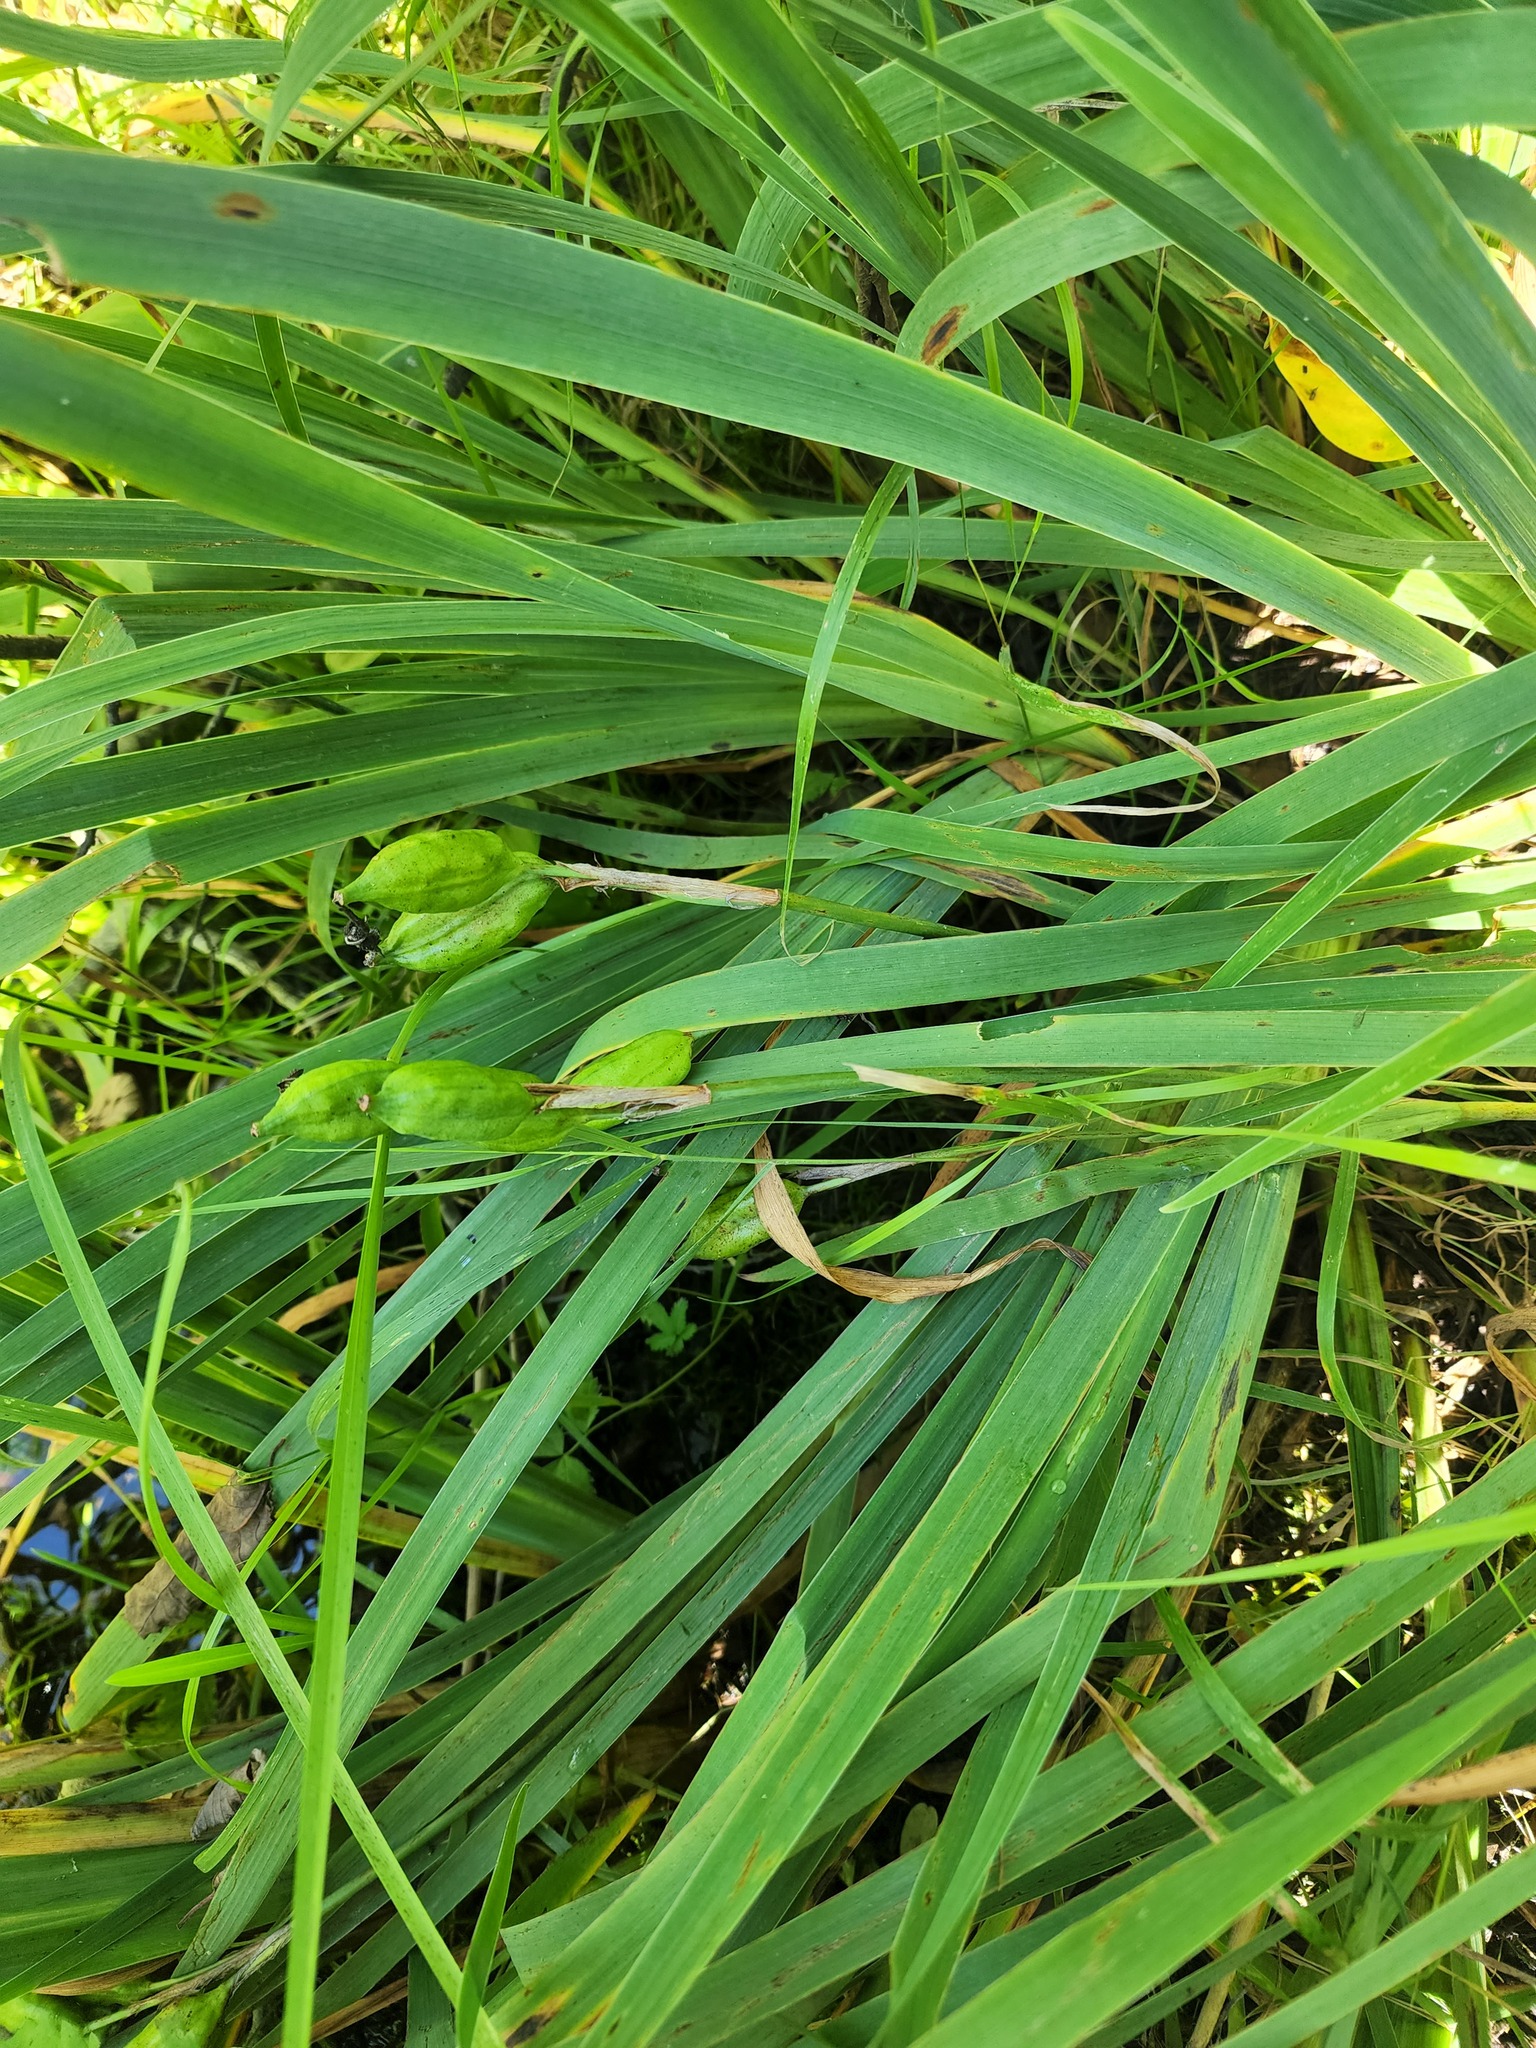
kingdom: Plantae
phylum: Tracheophyta
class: Liliopsida
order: Asparagales
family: Iridaceae
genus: Iris
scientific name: Iris versicolor
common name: Purple iris
